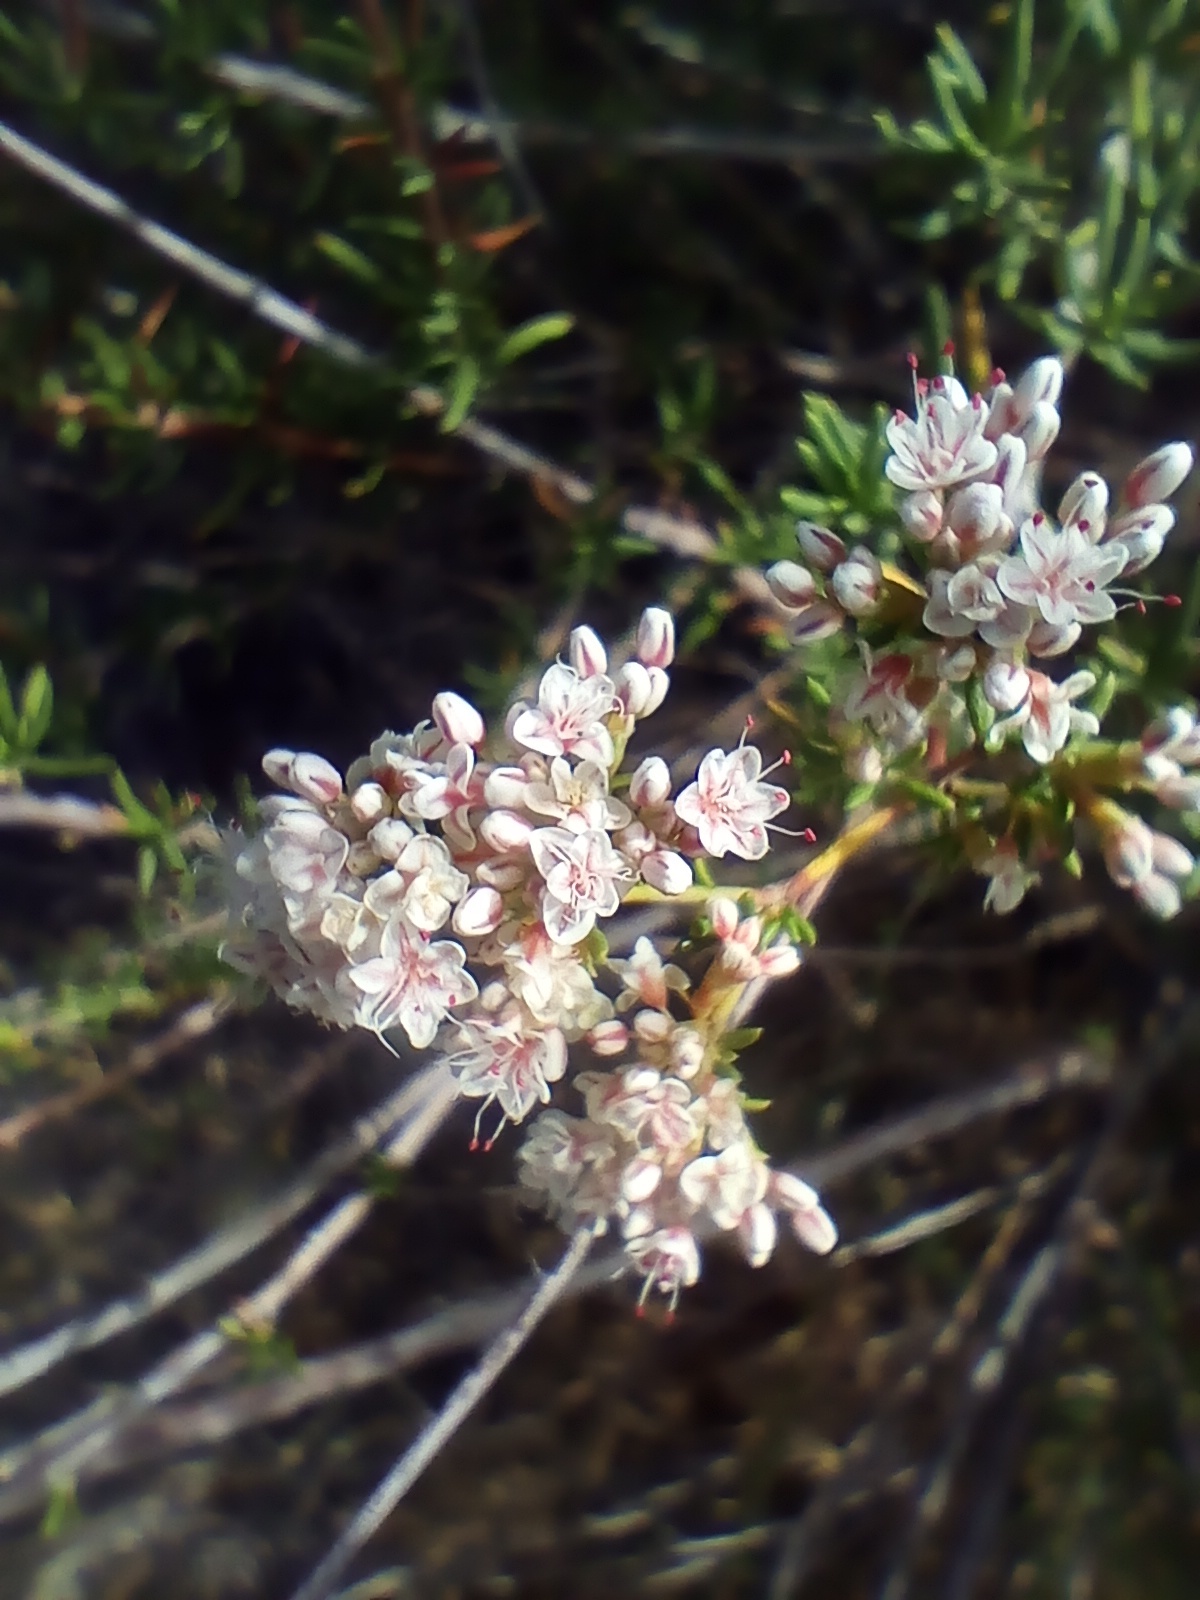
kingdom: Plantae
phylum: Tracheophyta
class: Magnoliopsida
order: Caryophyllales
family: Polygonaceae
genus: Eriogonum
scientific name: Eriogonum fasciculatum
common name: California wild buckwheat
